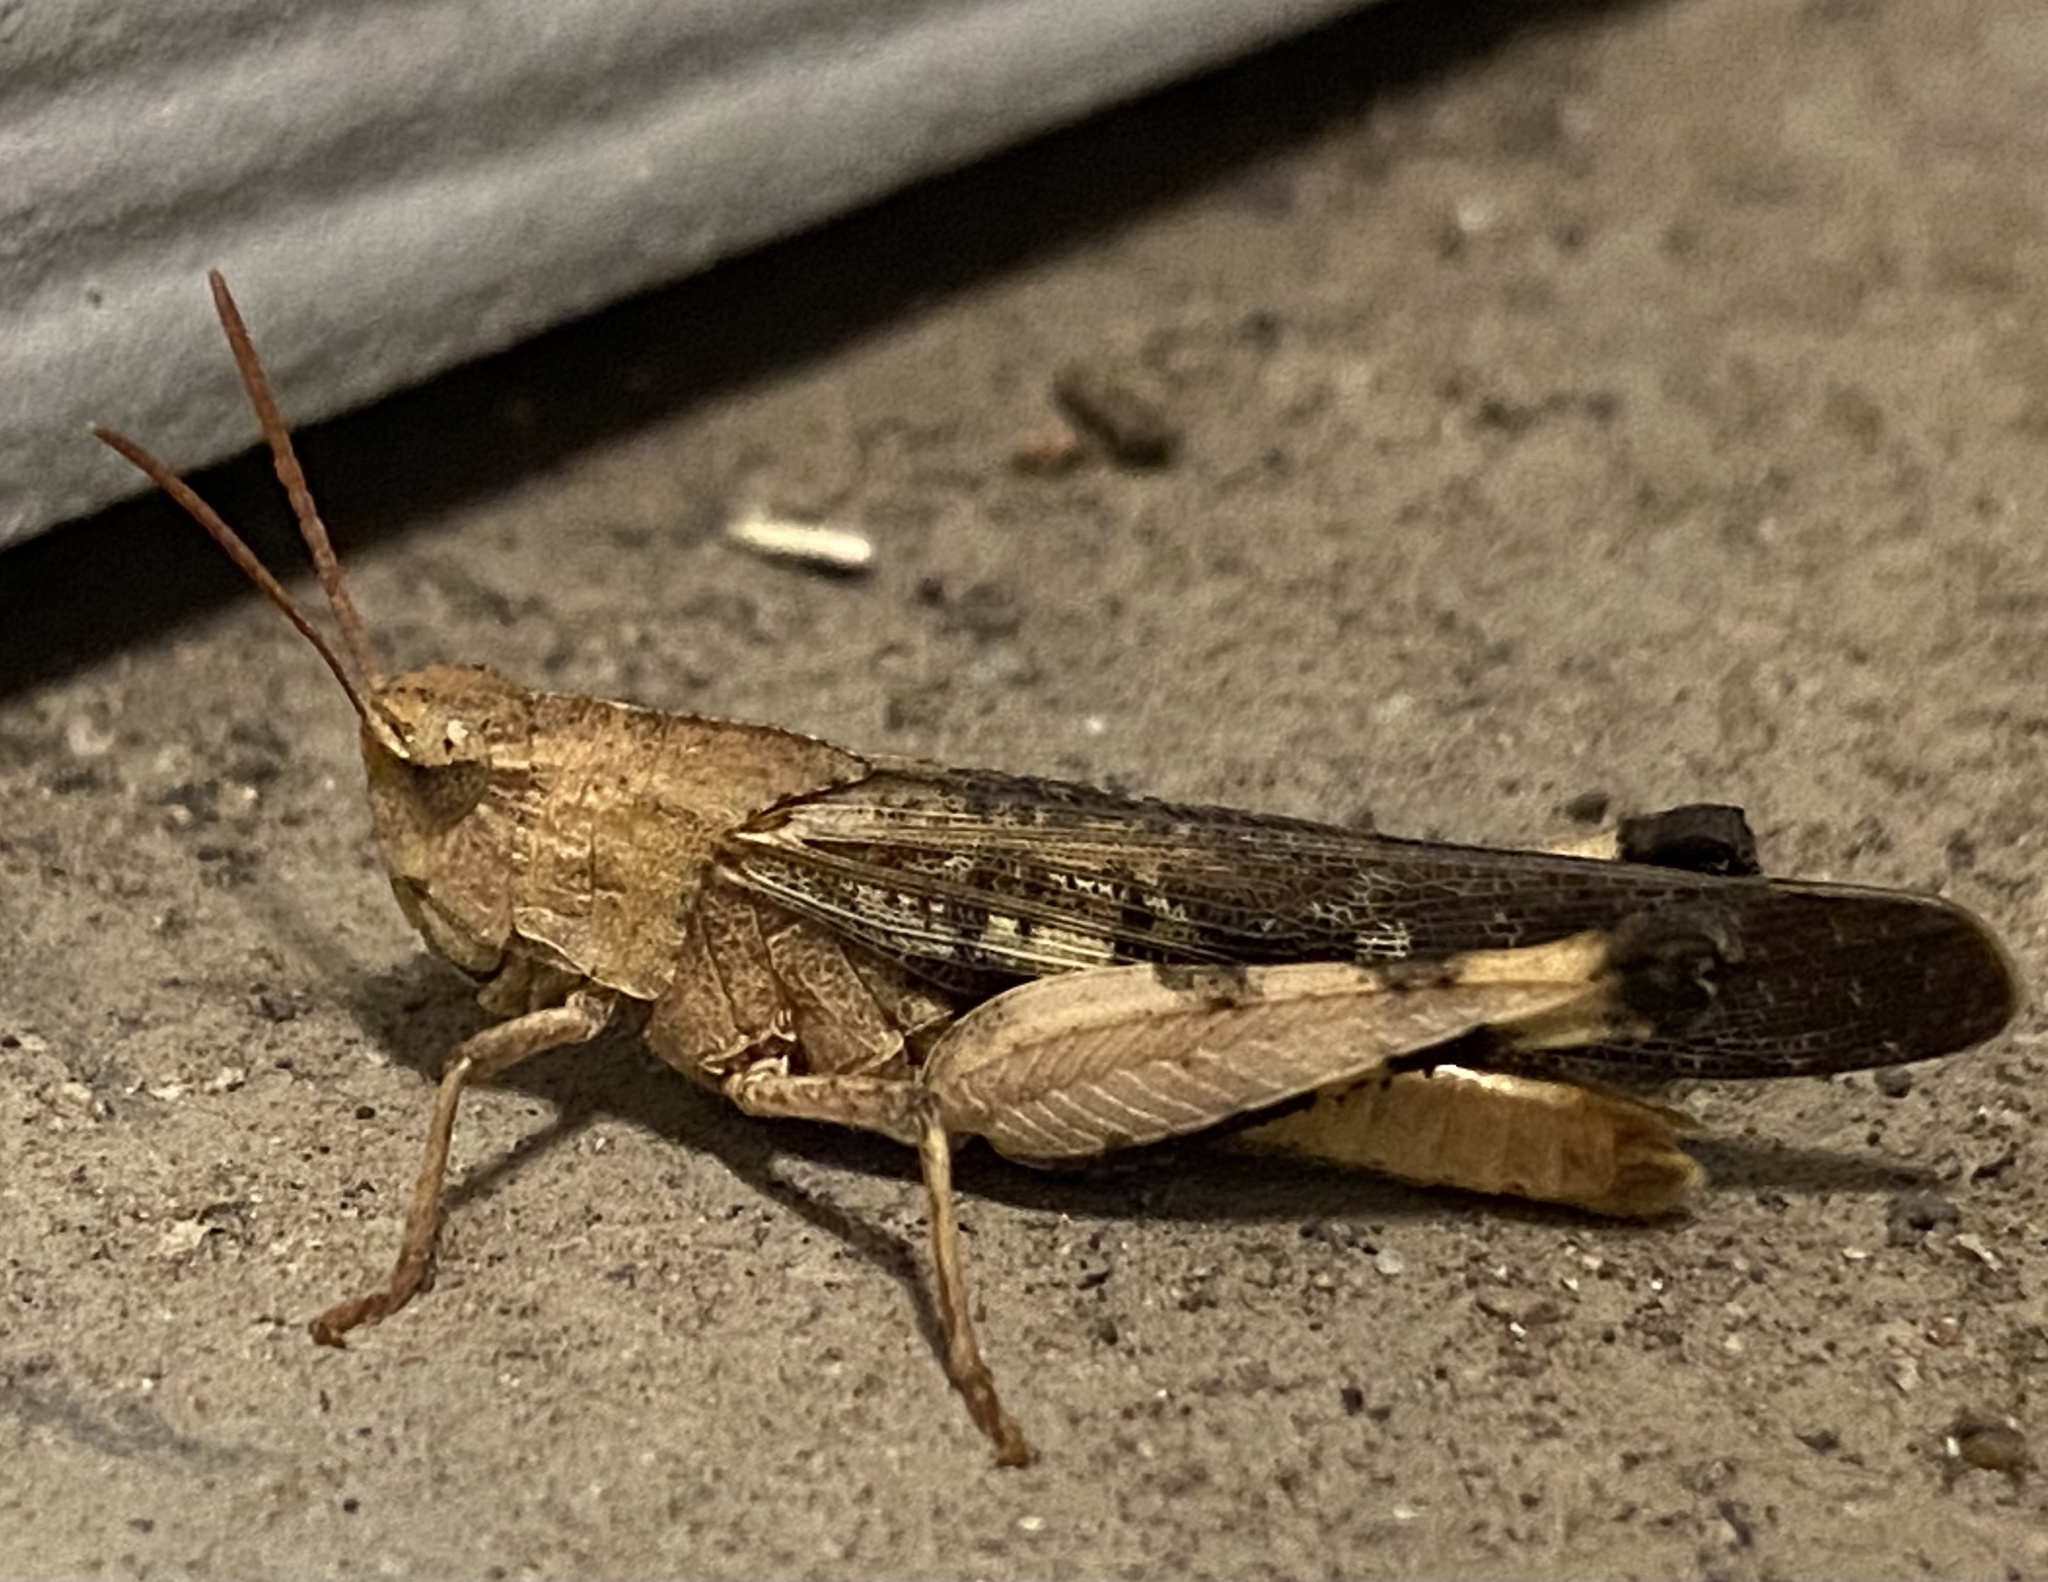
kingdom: Animalia
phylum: Arthropoda
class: Insecta
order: Orthoptera
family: Acrididae
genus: Chortophaga
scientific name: Chortophaga viridifasciata
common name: Green-striped grasshopper
